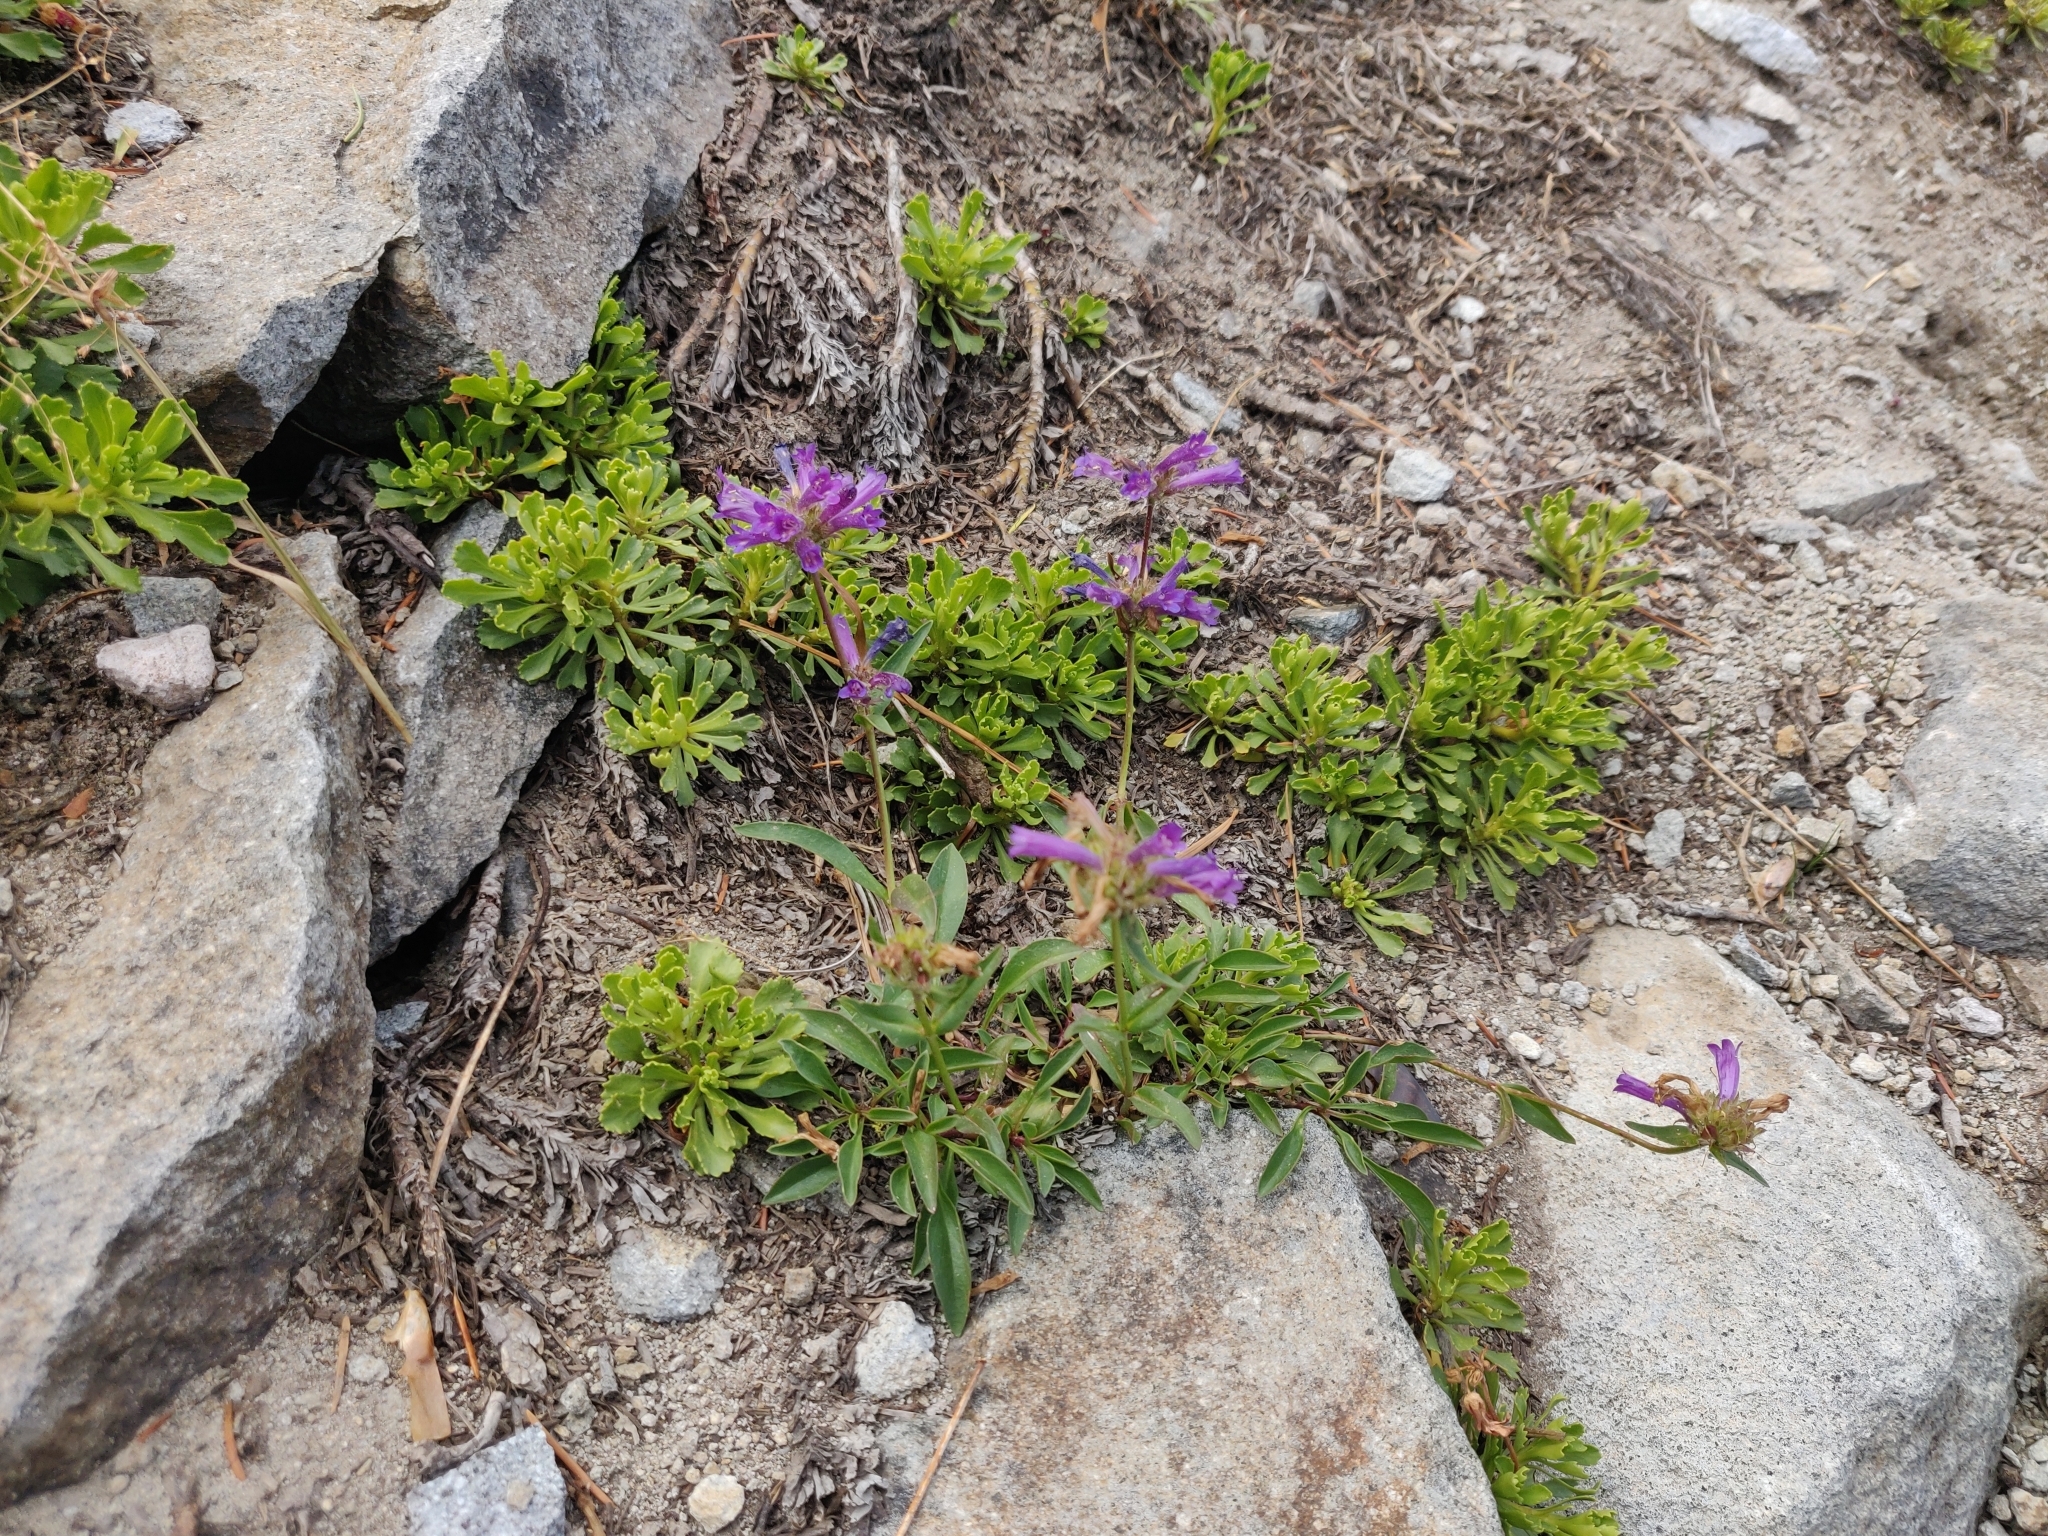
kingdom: Plantae
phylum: Tracheophyta
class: Magnoliopsida
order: Lamiales
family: Plantaginaceae
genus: Penstemon
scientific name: Penstemon speciosus
